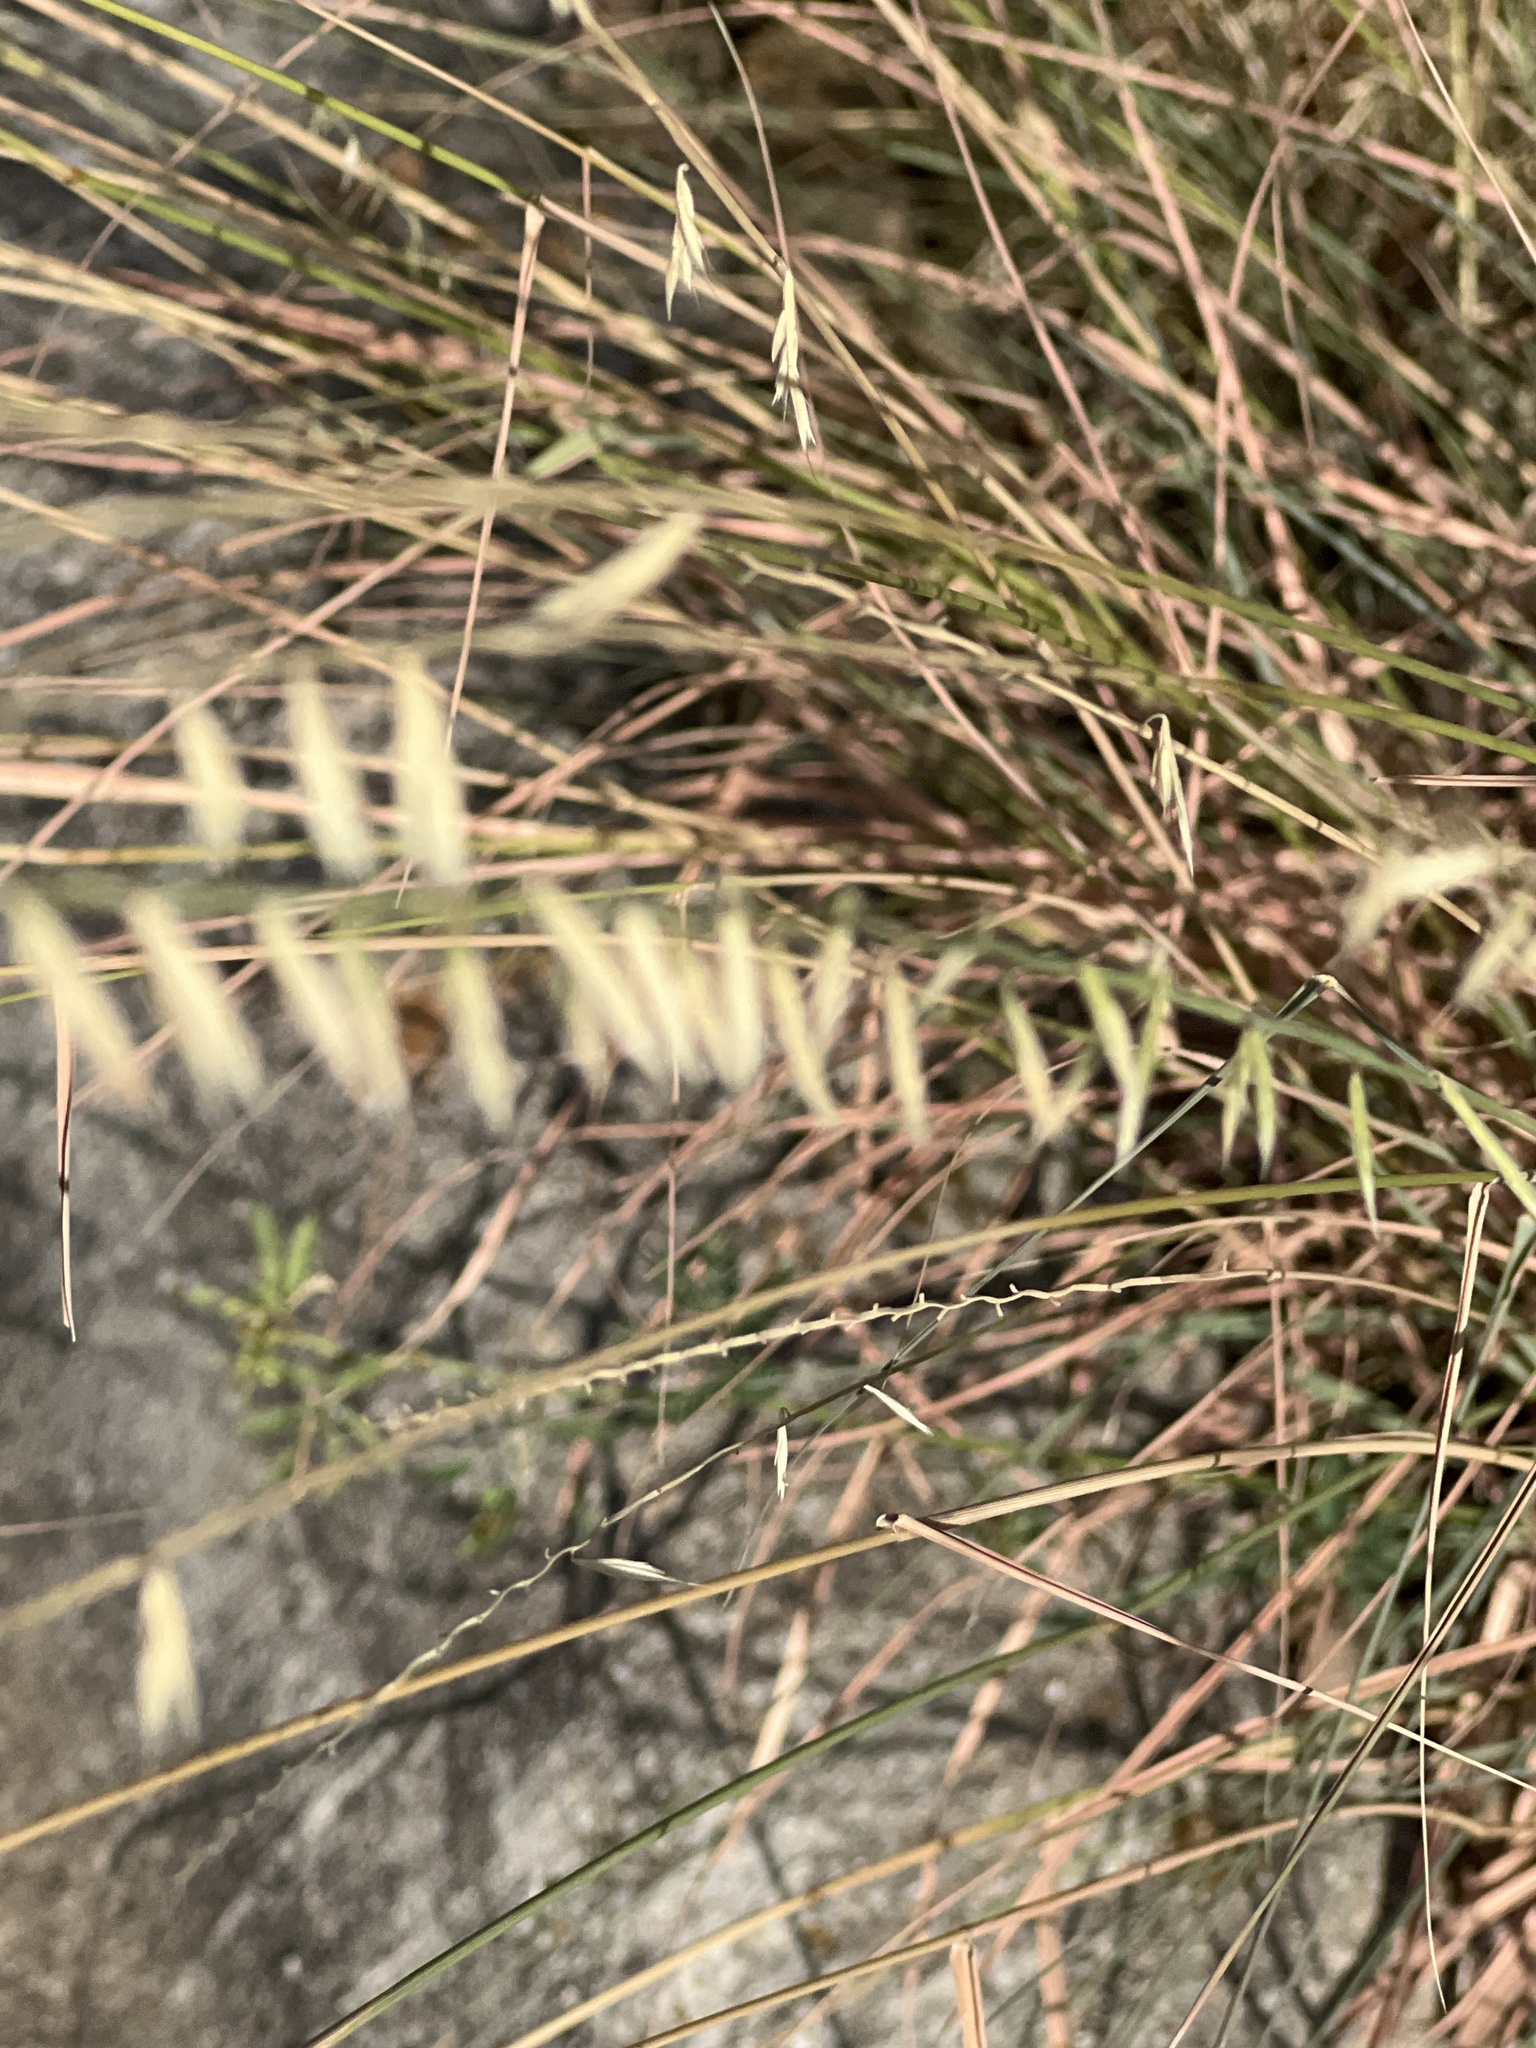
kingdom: Plantae
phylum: Tracheophyta
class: Liliopsida
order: Poales
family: Poaceae
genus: Bouteloua
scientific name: Bouteloua curtipendula
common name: Side-oats grama
